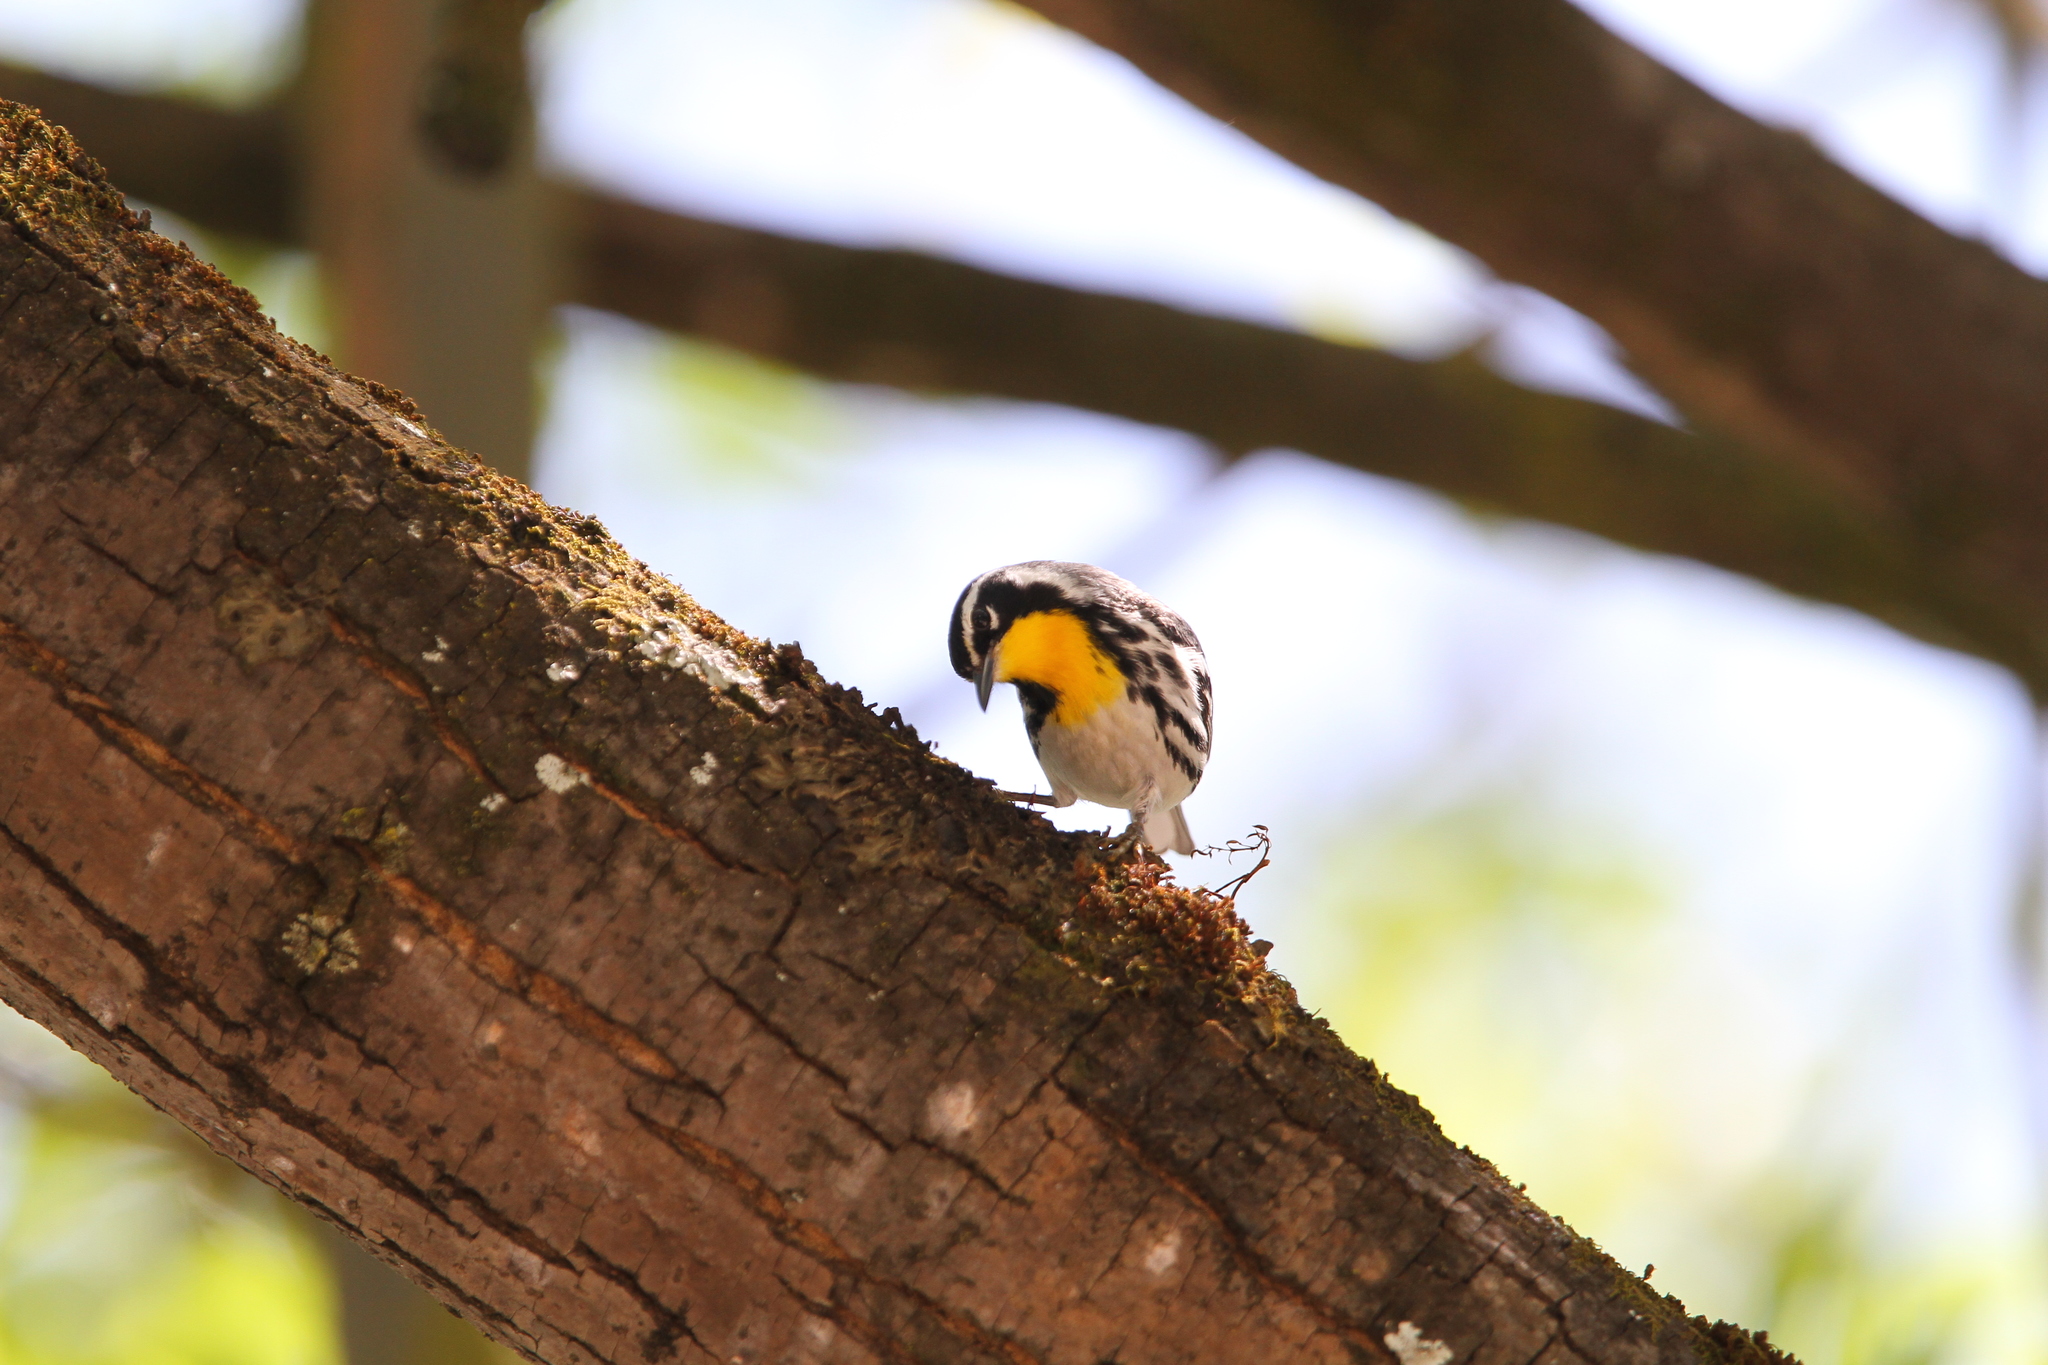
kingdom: Animalia
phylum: Chordata
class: Aves
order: Passeriformes
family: Parulidae
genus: Setophaga
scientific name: Setophaga dominica
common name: Yellow-throated warbler
